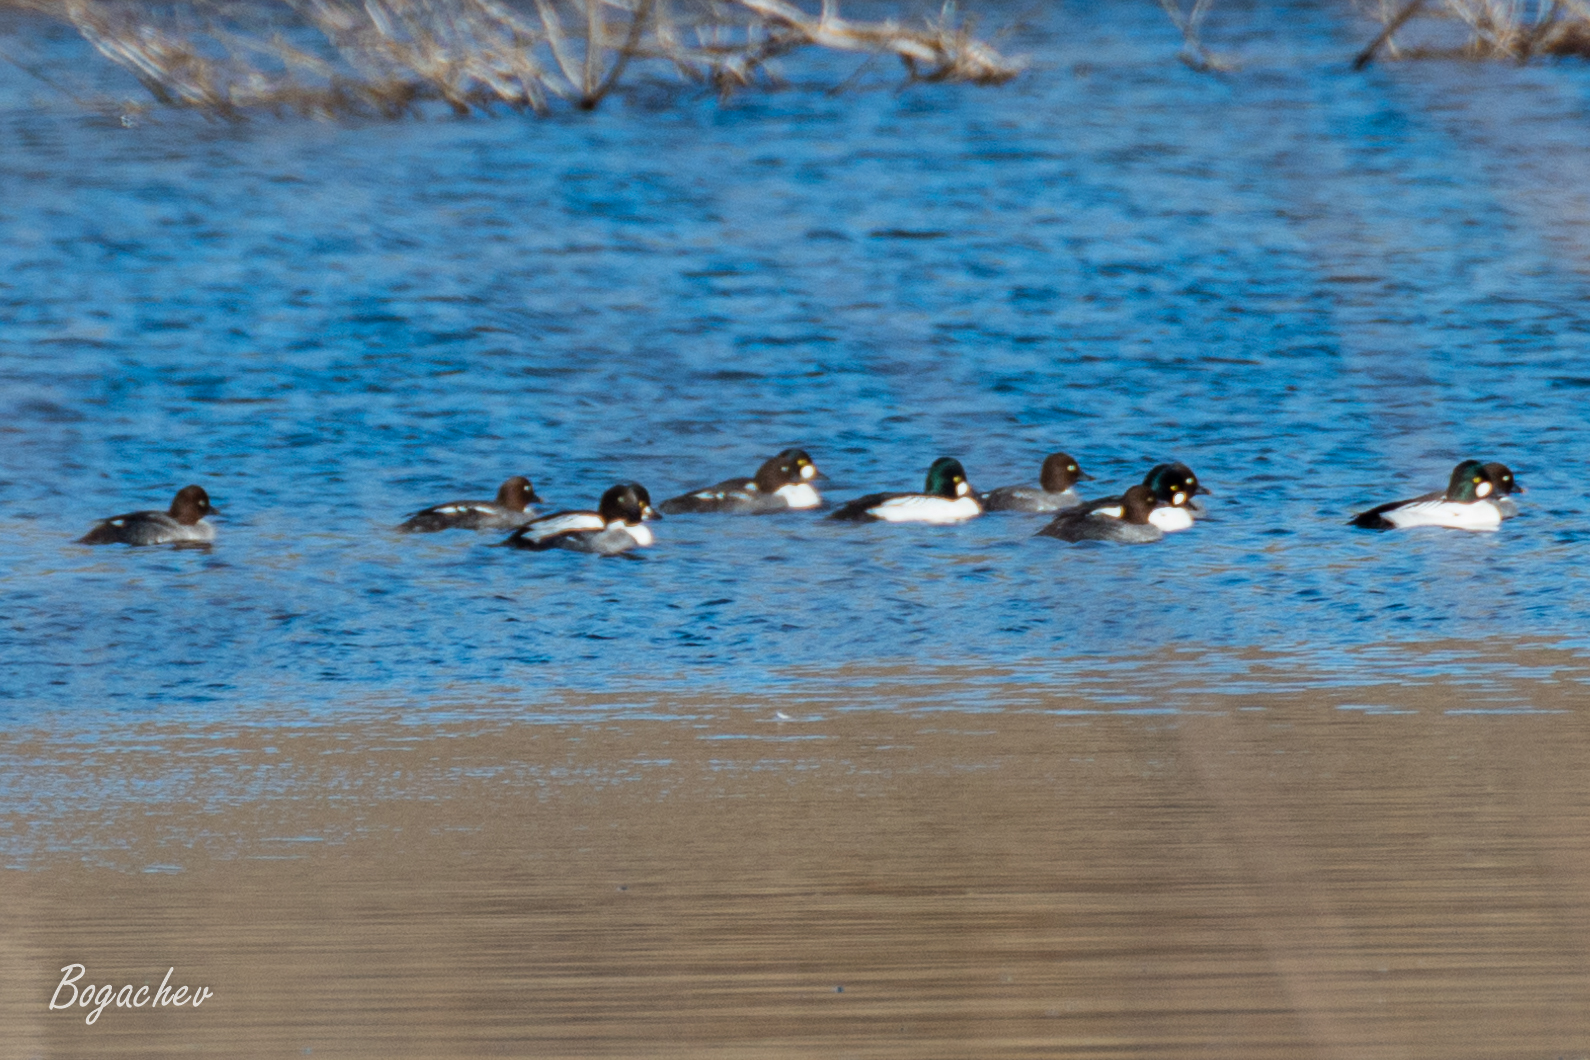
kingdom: Animalia
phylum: Chordata
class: Aves
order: Anseriformes
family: Anatidae
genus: Bucephala
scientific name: Bucephala clangula
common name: Common goldeneye
